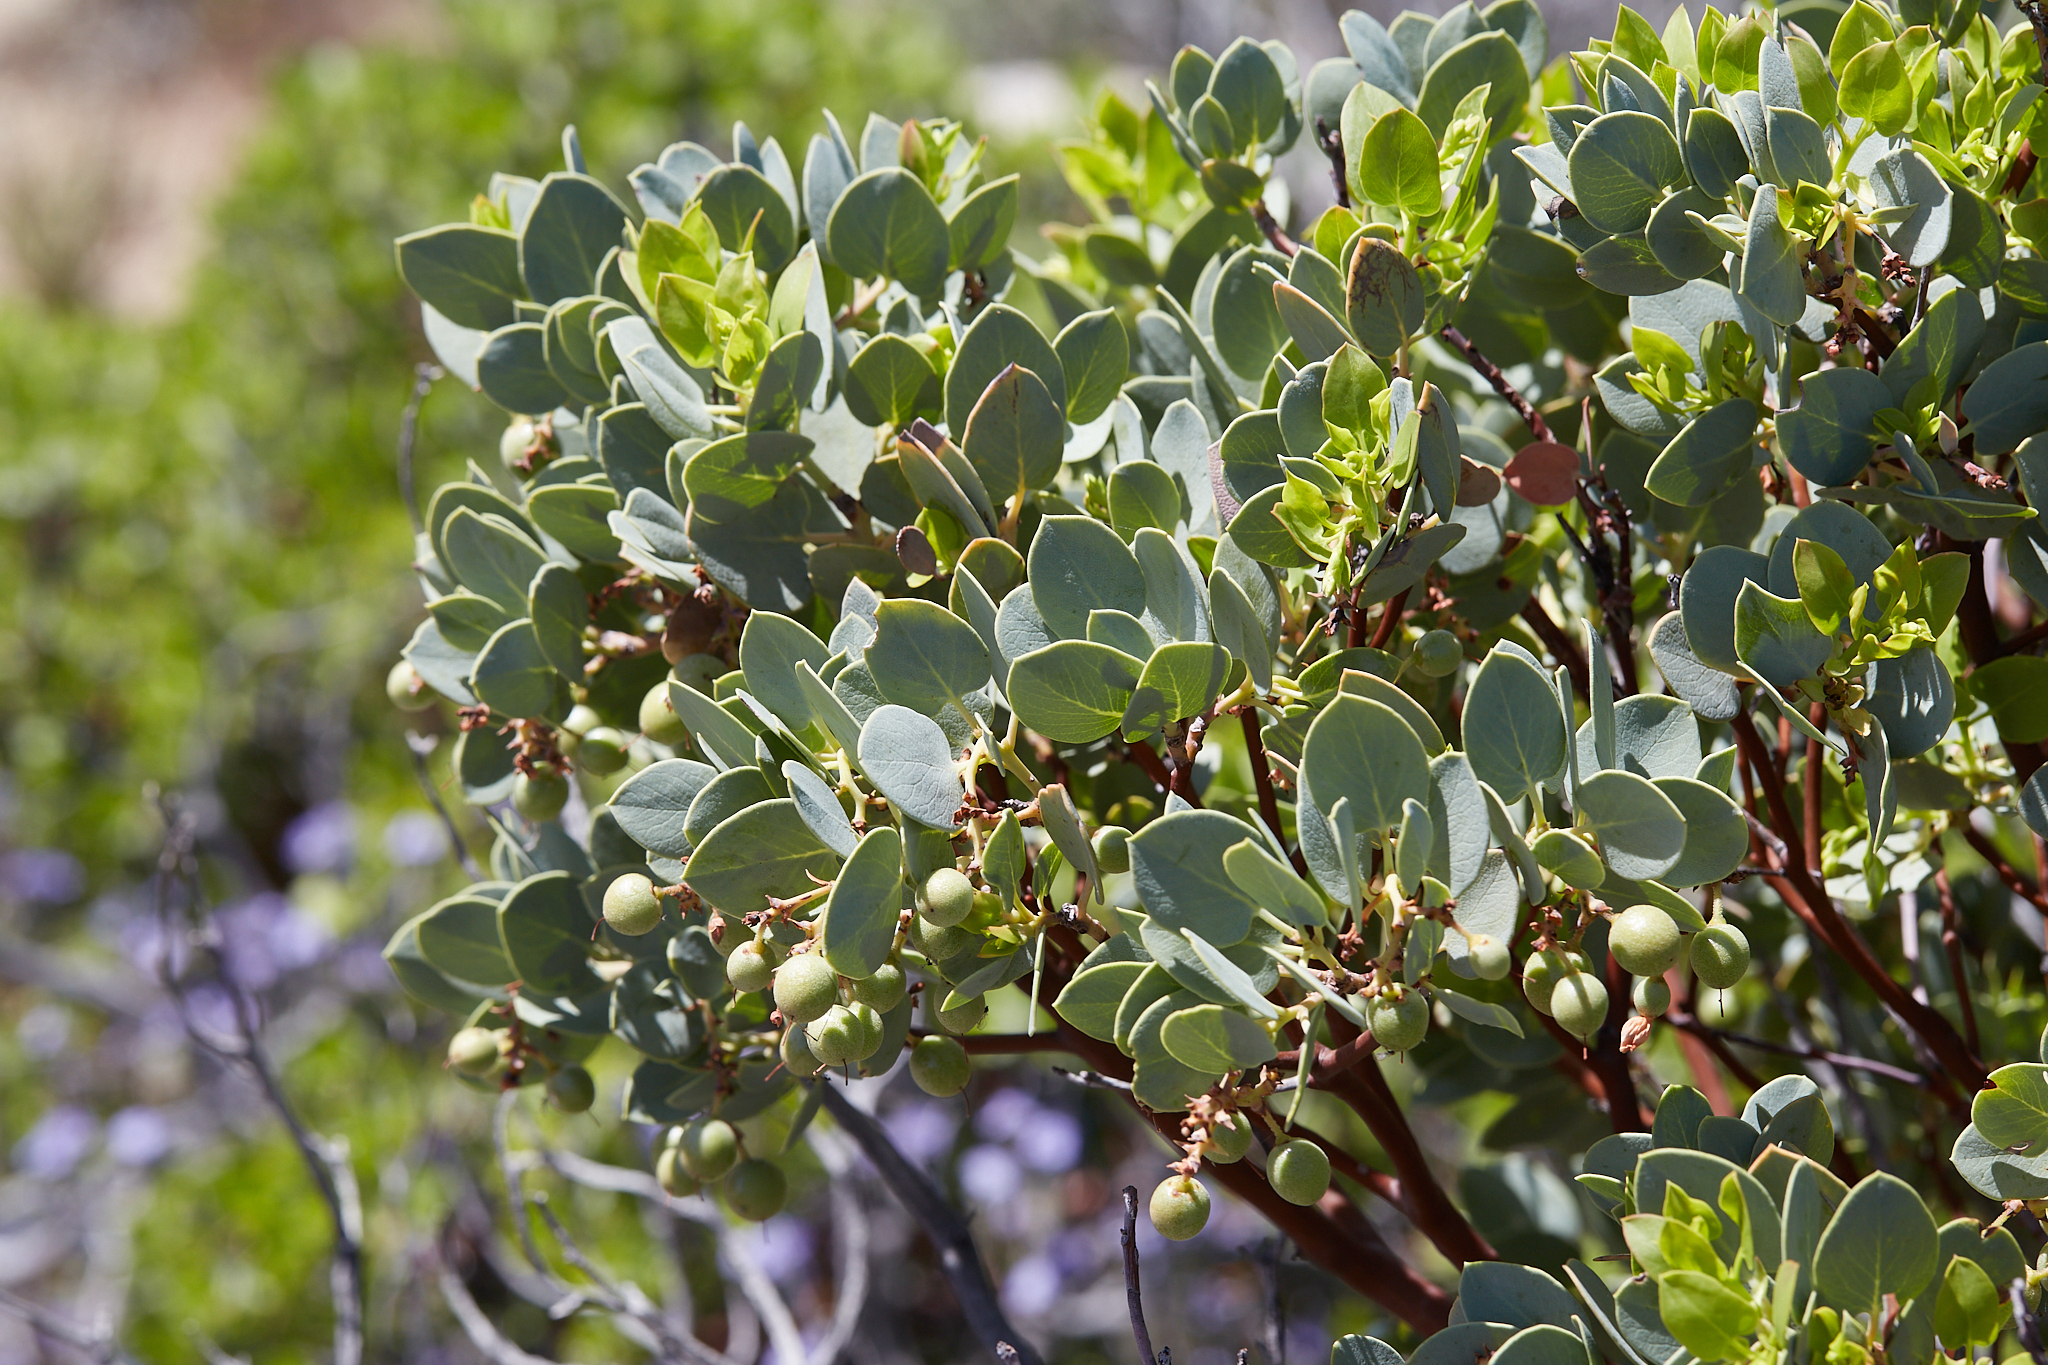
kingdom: Plantae
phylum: Tracheophyta
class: Magnoliopsida
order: Ericales
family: Ericaceae
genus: Arctostaphylos
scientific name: Arctostaphylos glauca
